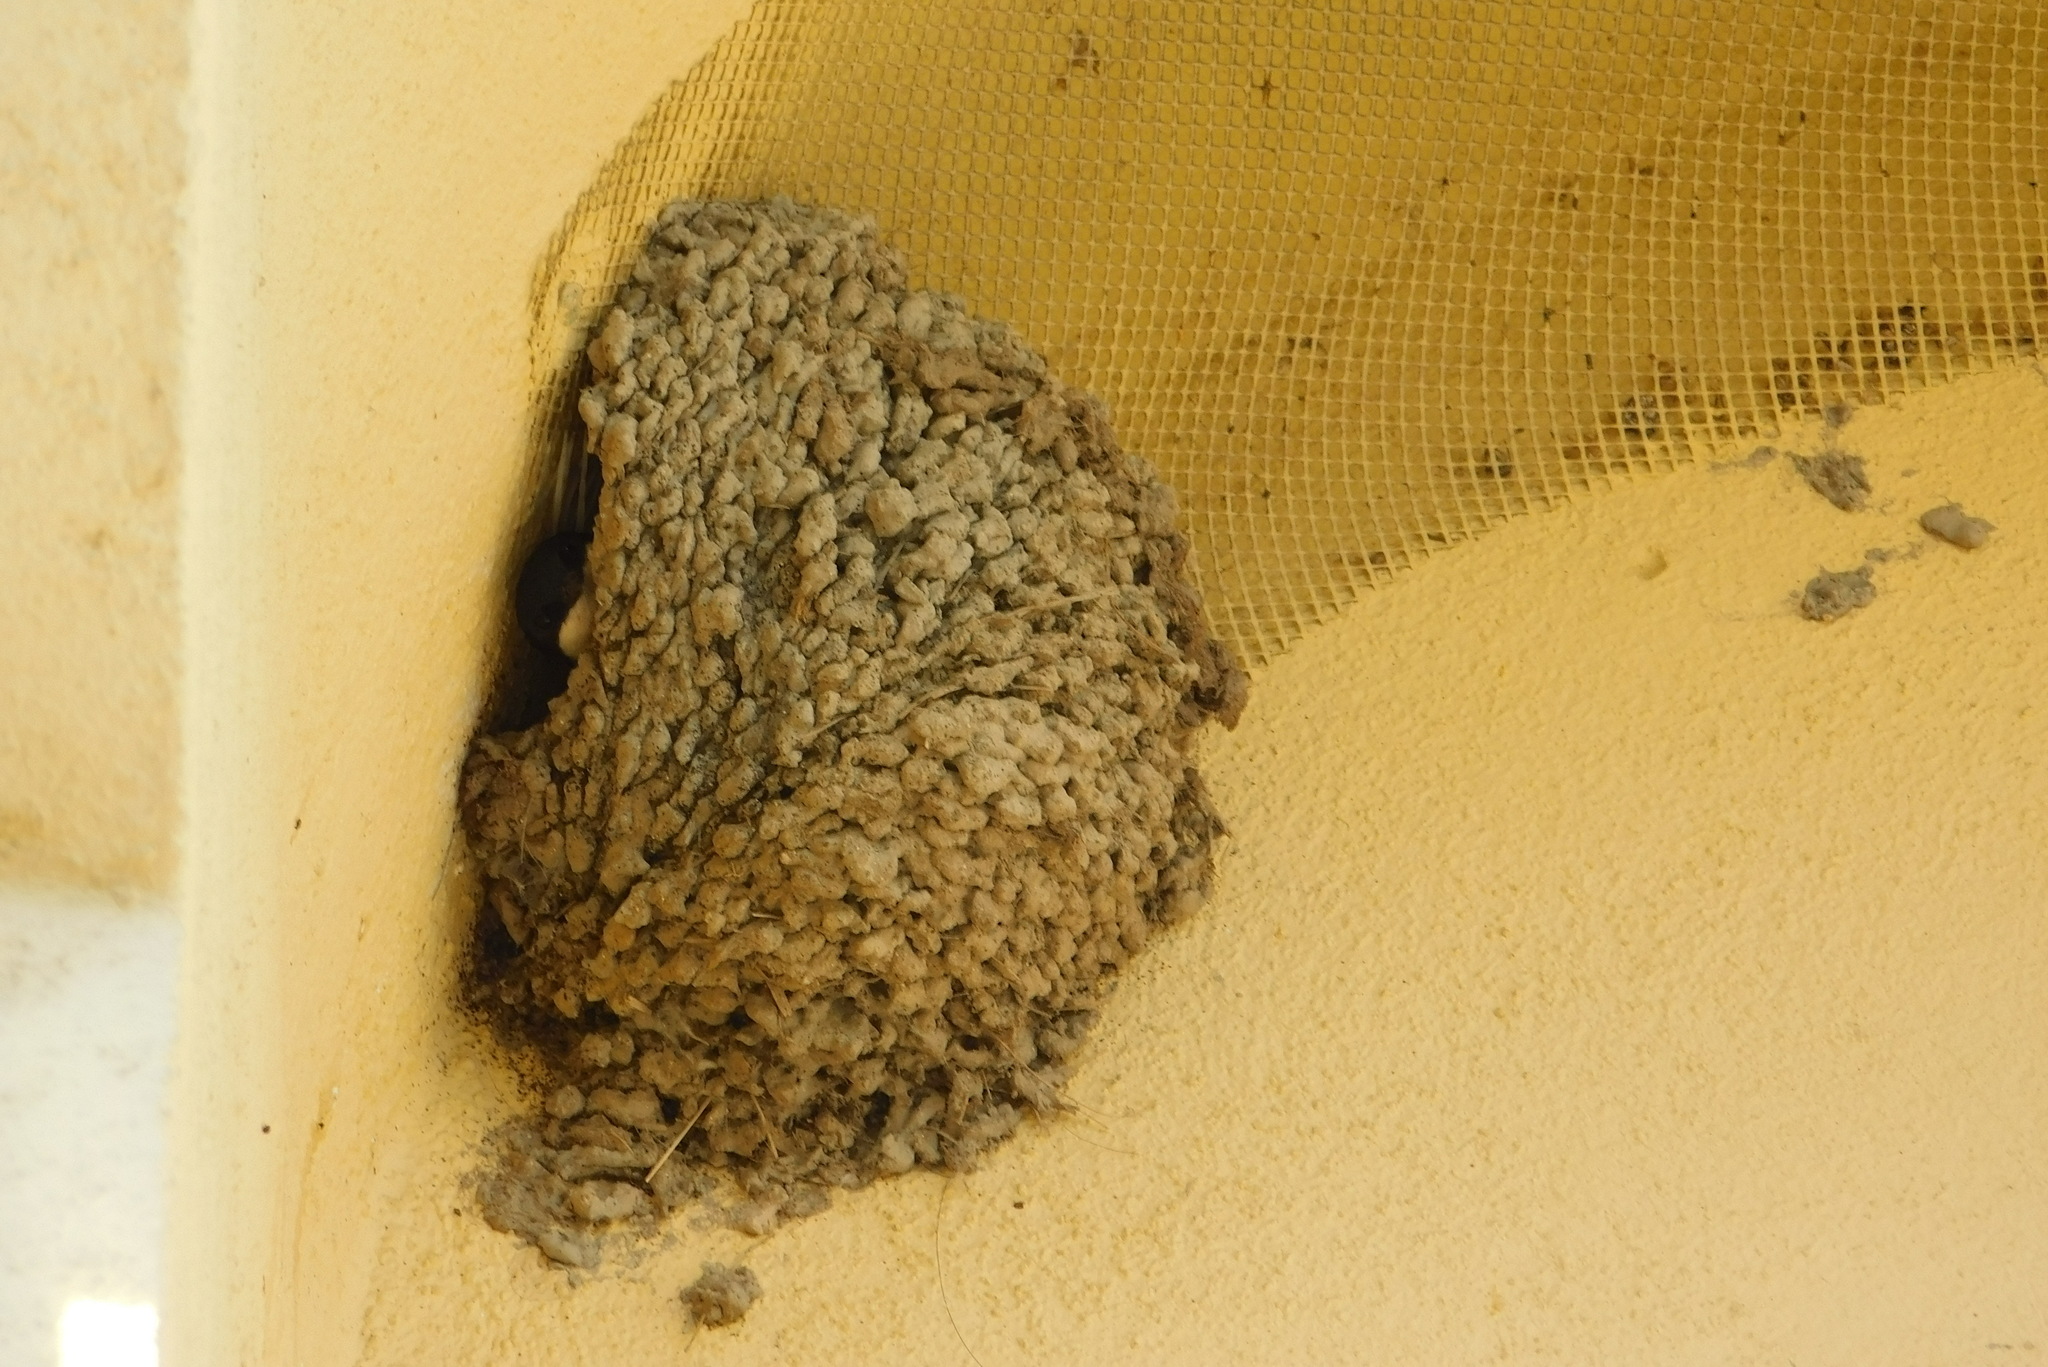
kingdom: Animalia
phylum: Chordata
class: Aves
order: Passeriformes
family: Hirundinidae
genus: Delichon
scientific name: Delichon urbicum
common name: Common house martin
